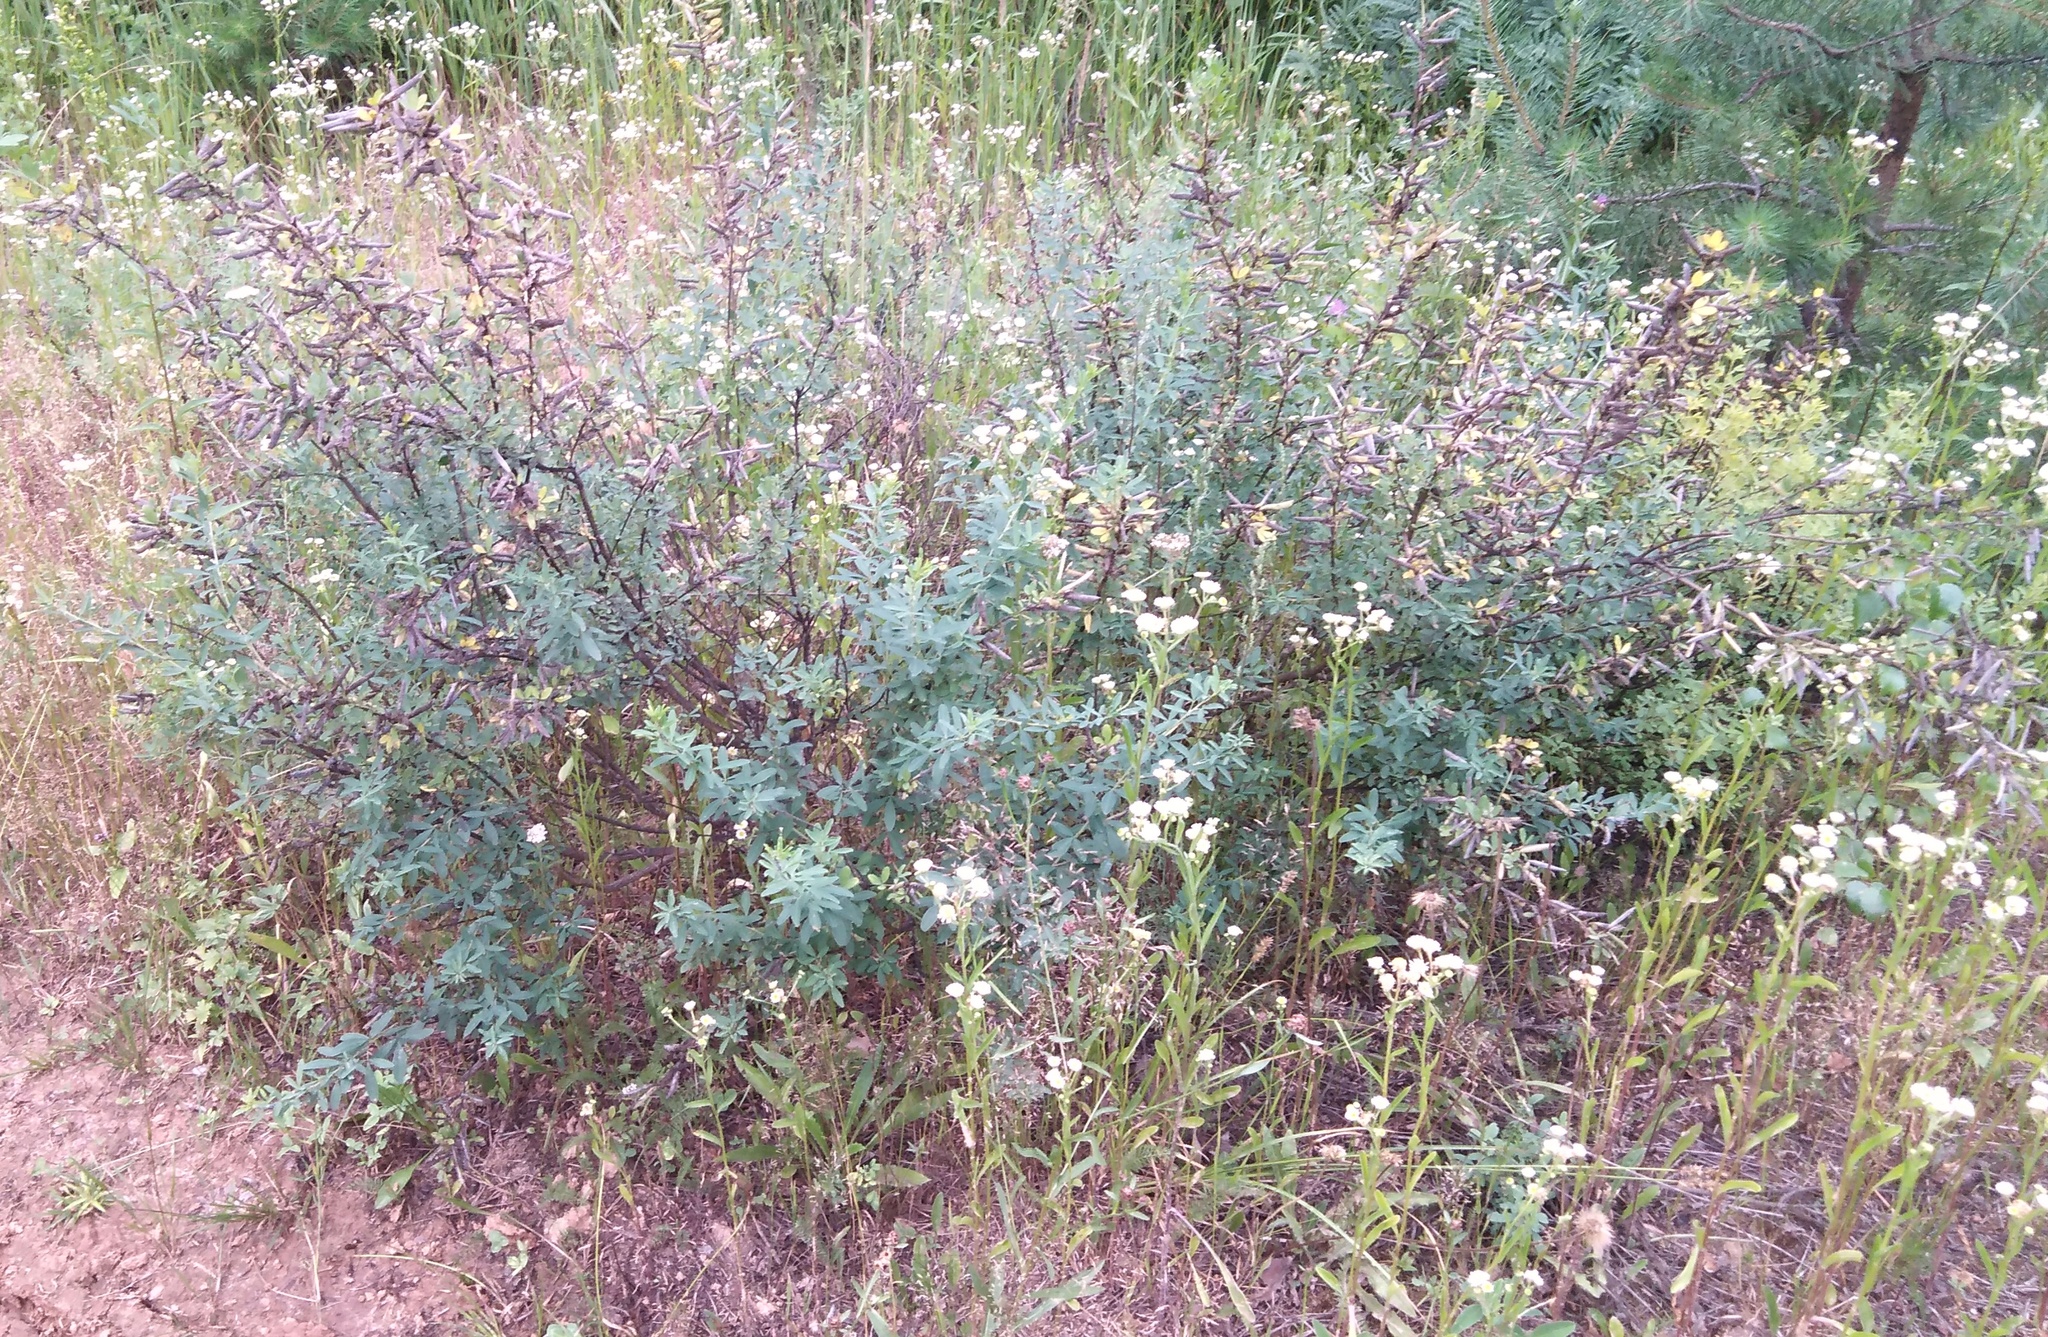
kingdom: Plantae
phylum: Tracheophyta
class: Magnoliopsida
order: Fabales
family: Fabaceae
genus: Chamaecytisus
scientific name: Chamaecytisus ruthenicus
